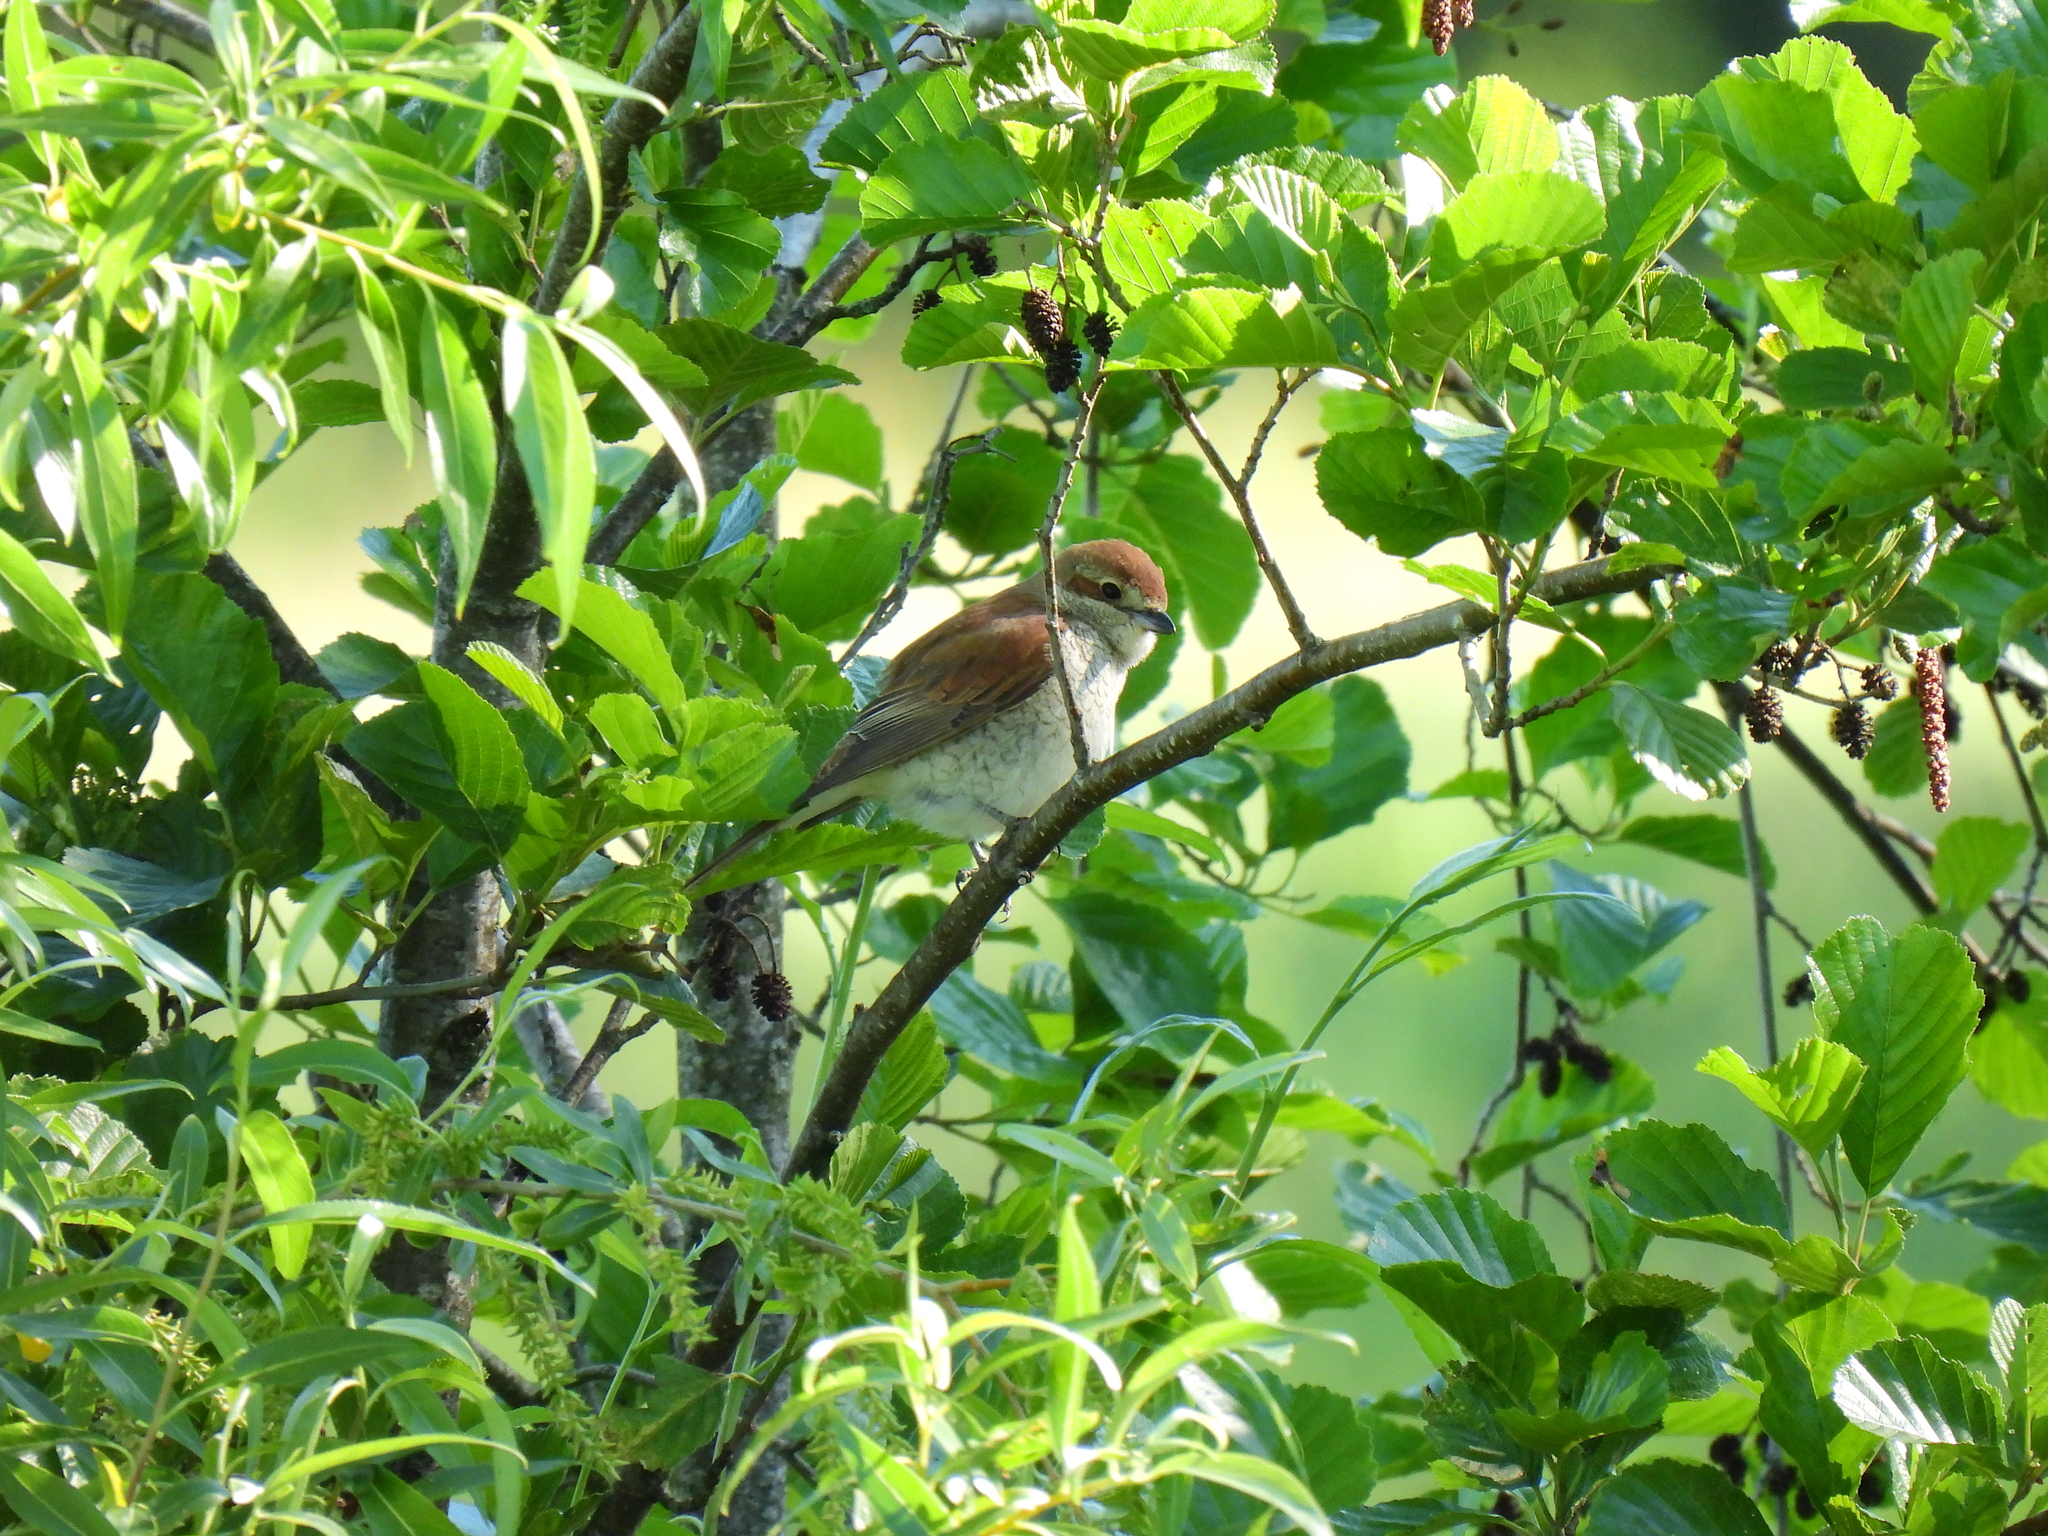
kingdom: Animalia
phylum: Chordata
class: Aves
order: Passeriformes
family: Laniidae
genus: Lanius
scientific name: Lanius collurio
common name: Red-backed shrike
